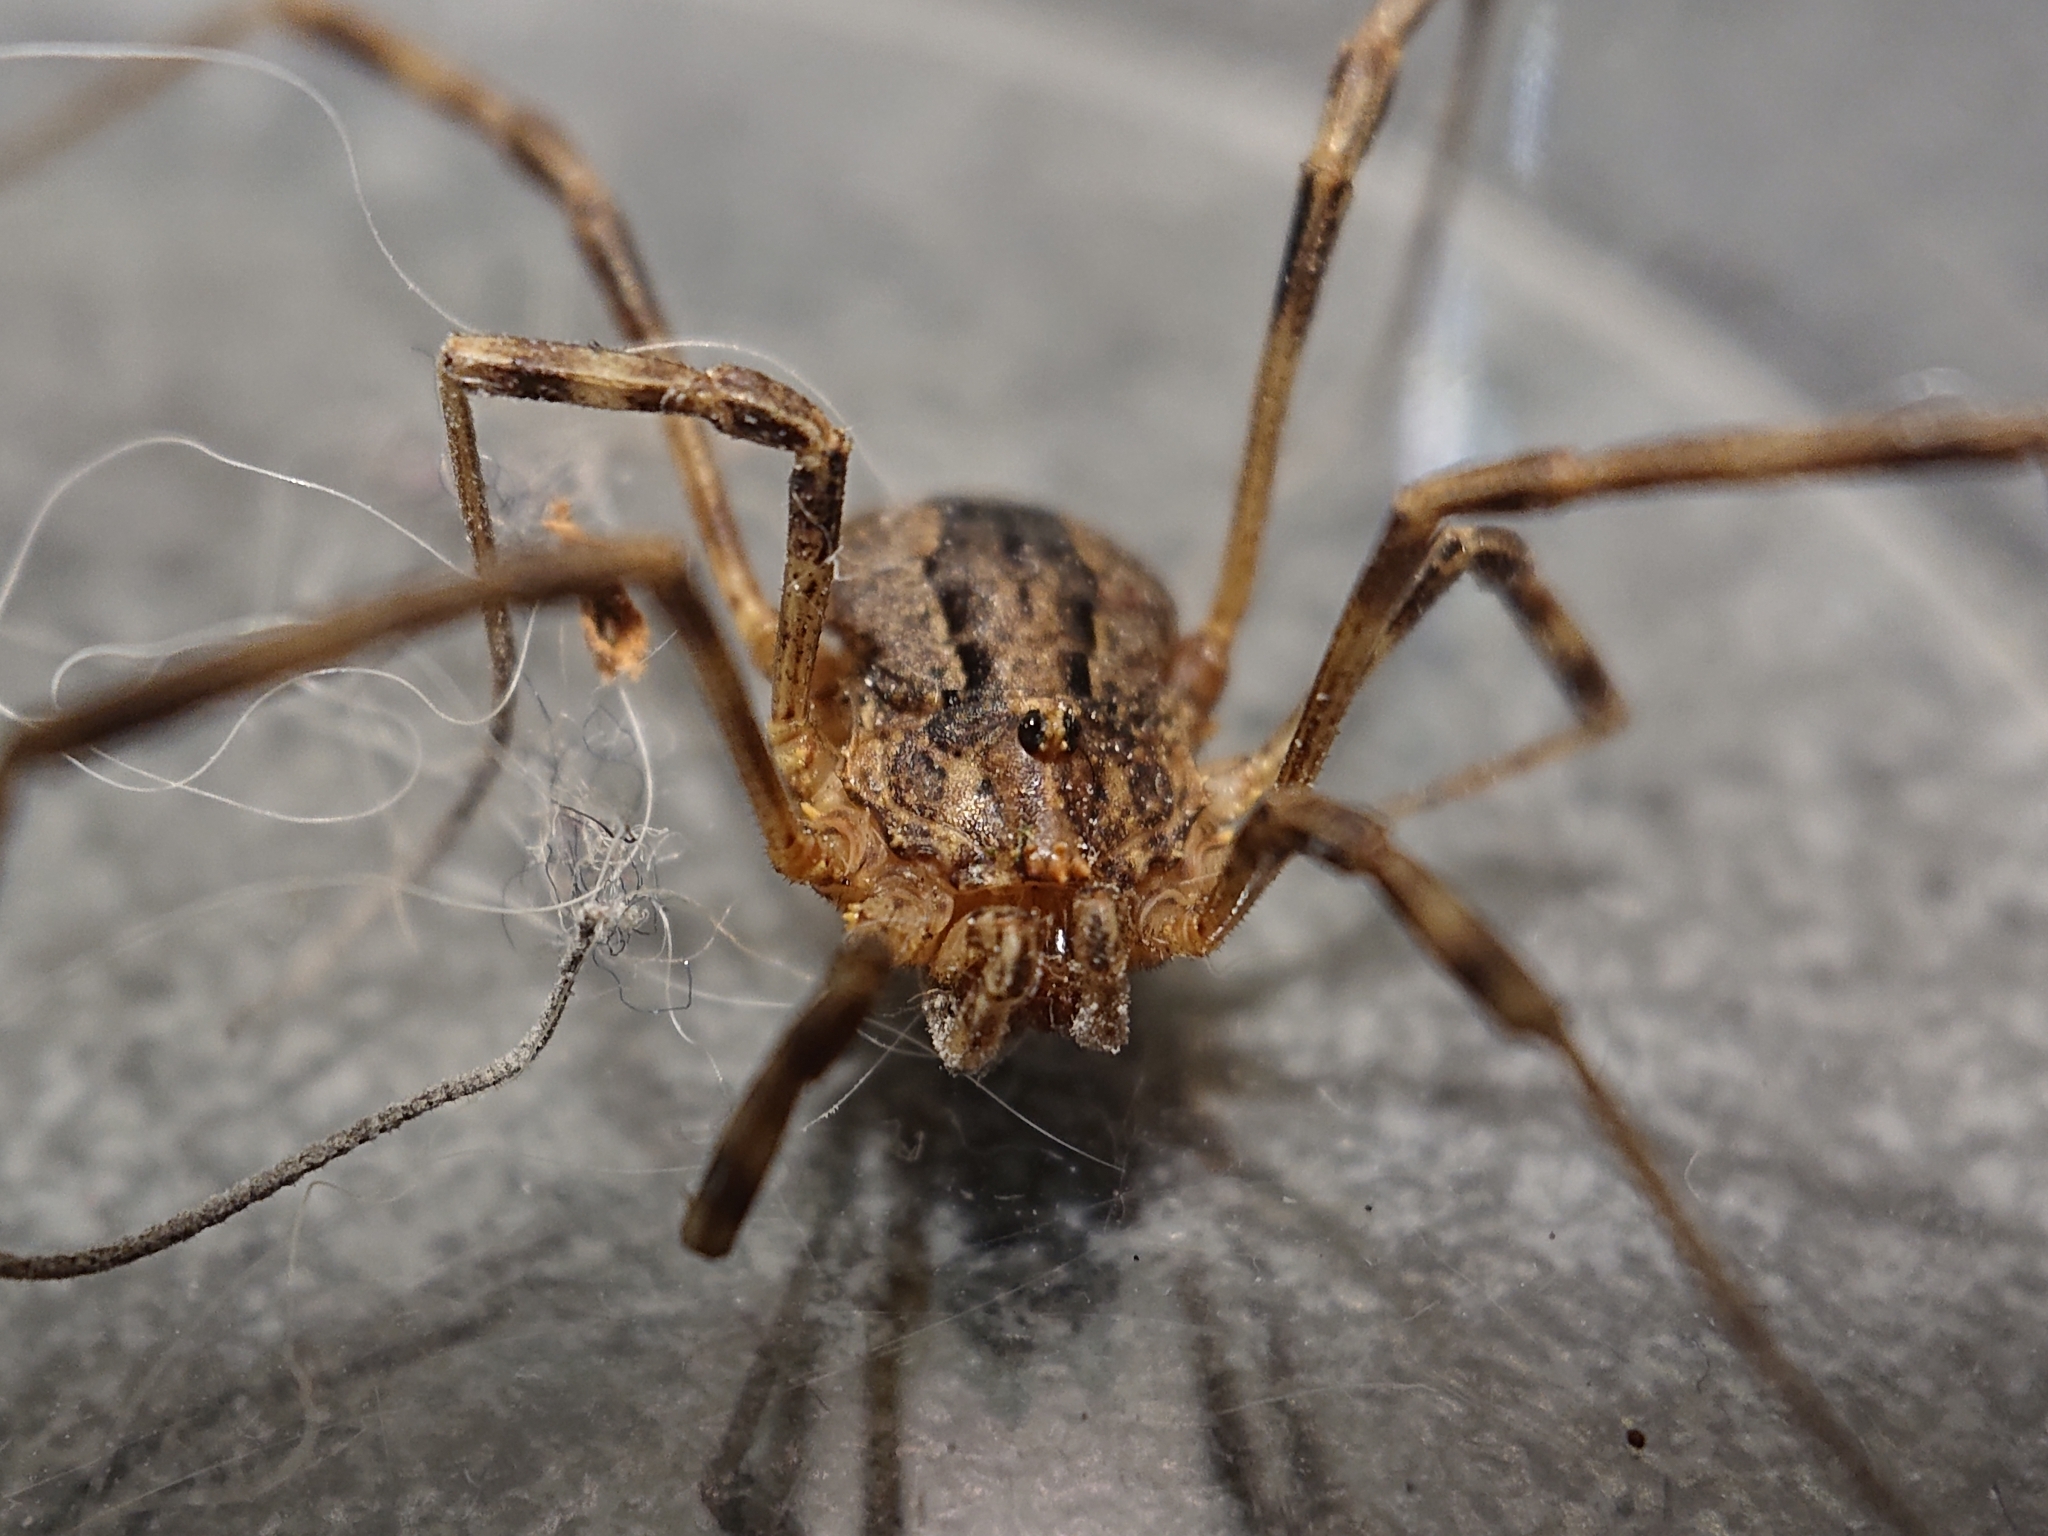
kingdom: Animalia
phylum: Arthropoda
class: Arachnida
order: Opiliones
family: Phalangiidae
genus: Odiellus
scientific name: Odiellus spinosus
